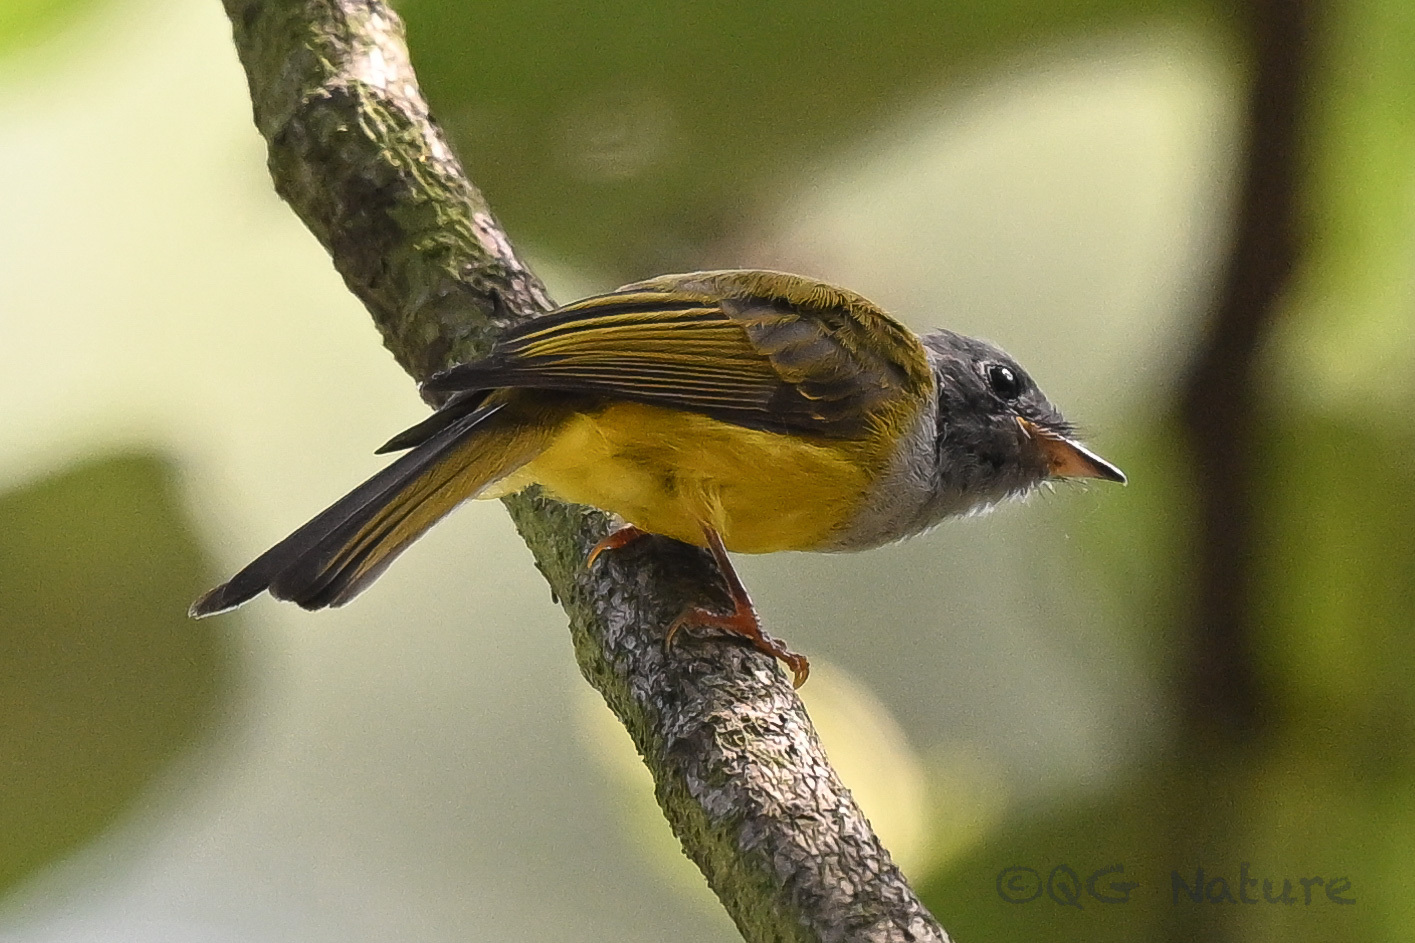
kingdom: Animalia
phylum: Chordata
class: Aves
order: Passeriformes
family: Stenostiridae
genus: Culicicapa
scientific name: Culicicapa ceylonensis
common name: Grey-headed canary-flycatcher
